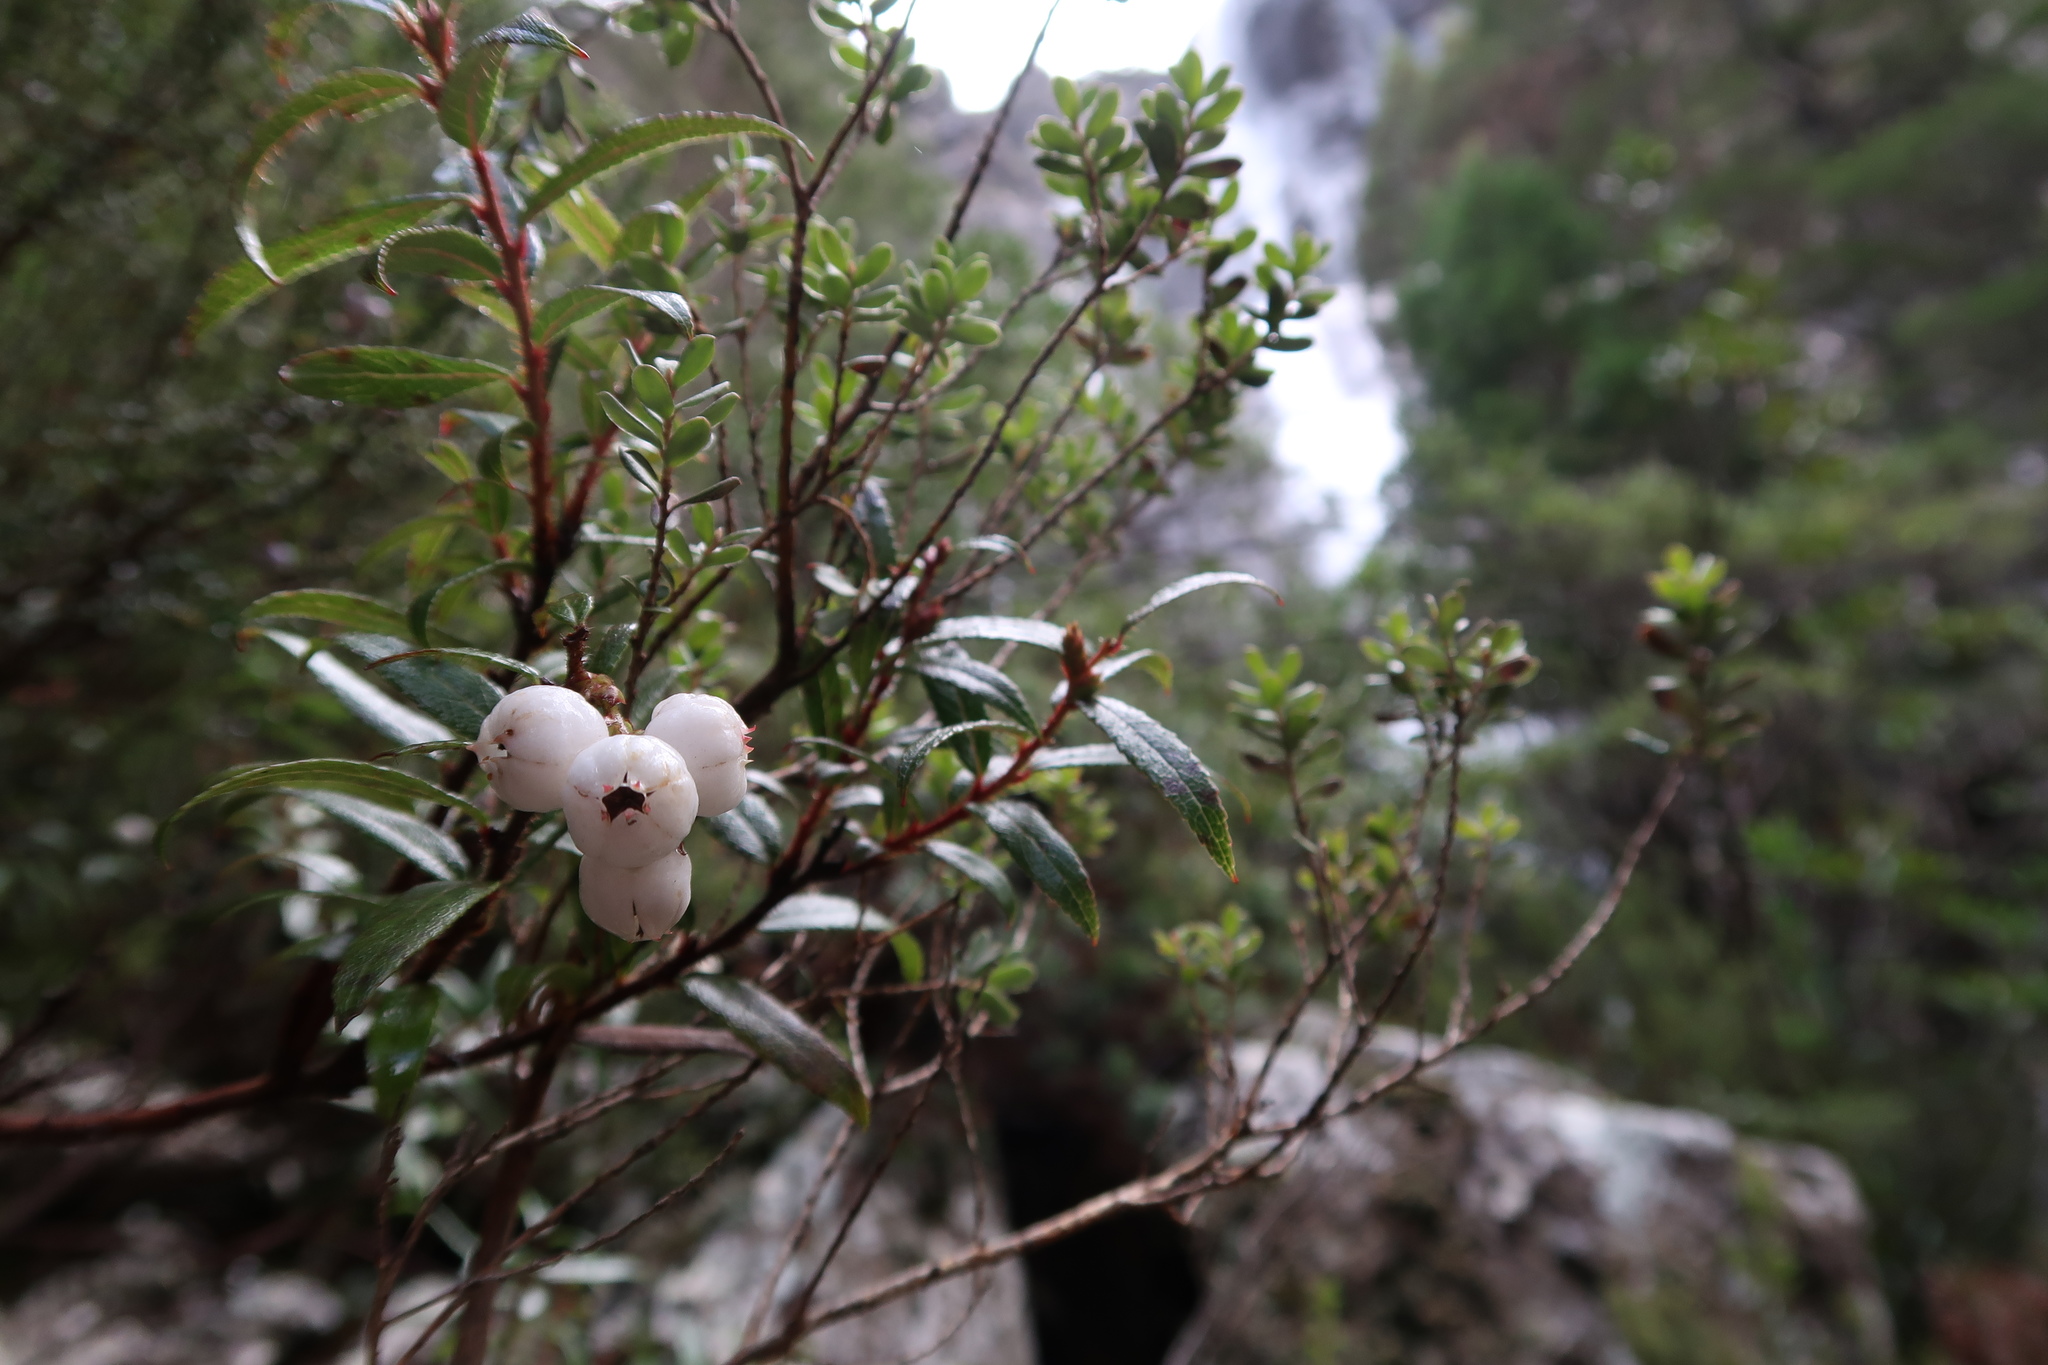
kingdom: Plantae
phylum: Tracheophyta
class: Magnoliopsida
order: Ericales
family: Ericaceae
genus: Gaultheria
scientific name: Gaultheria hispida
